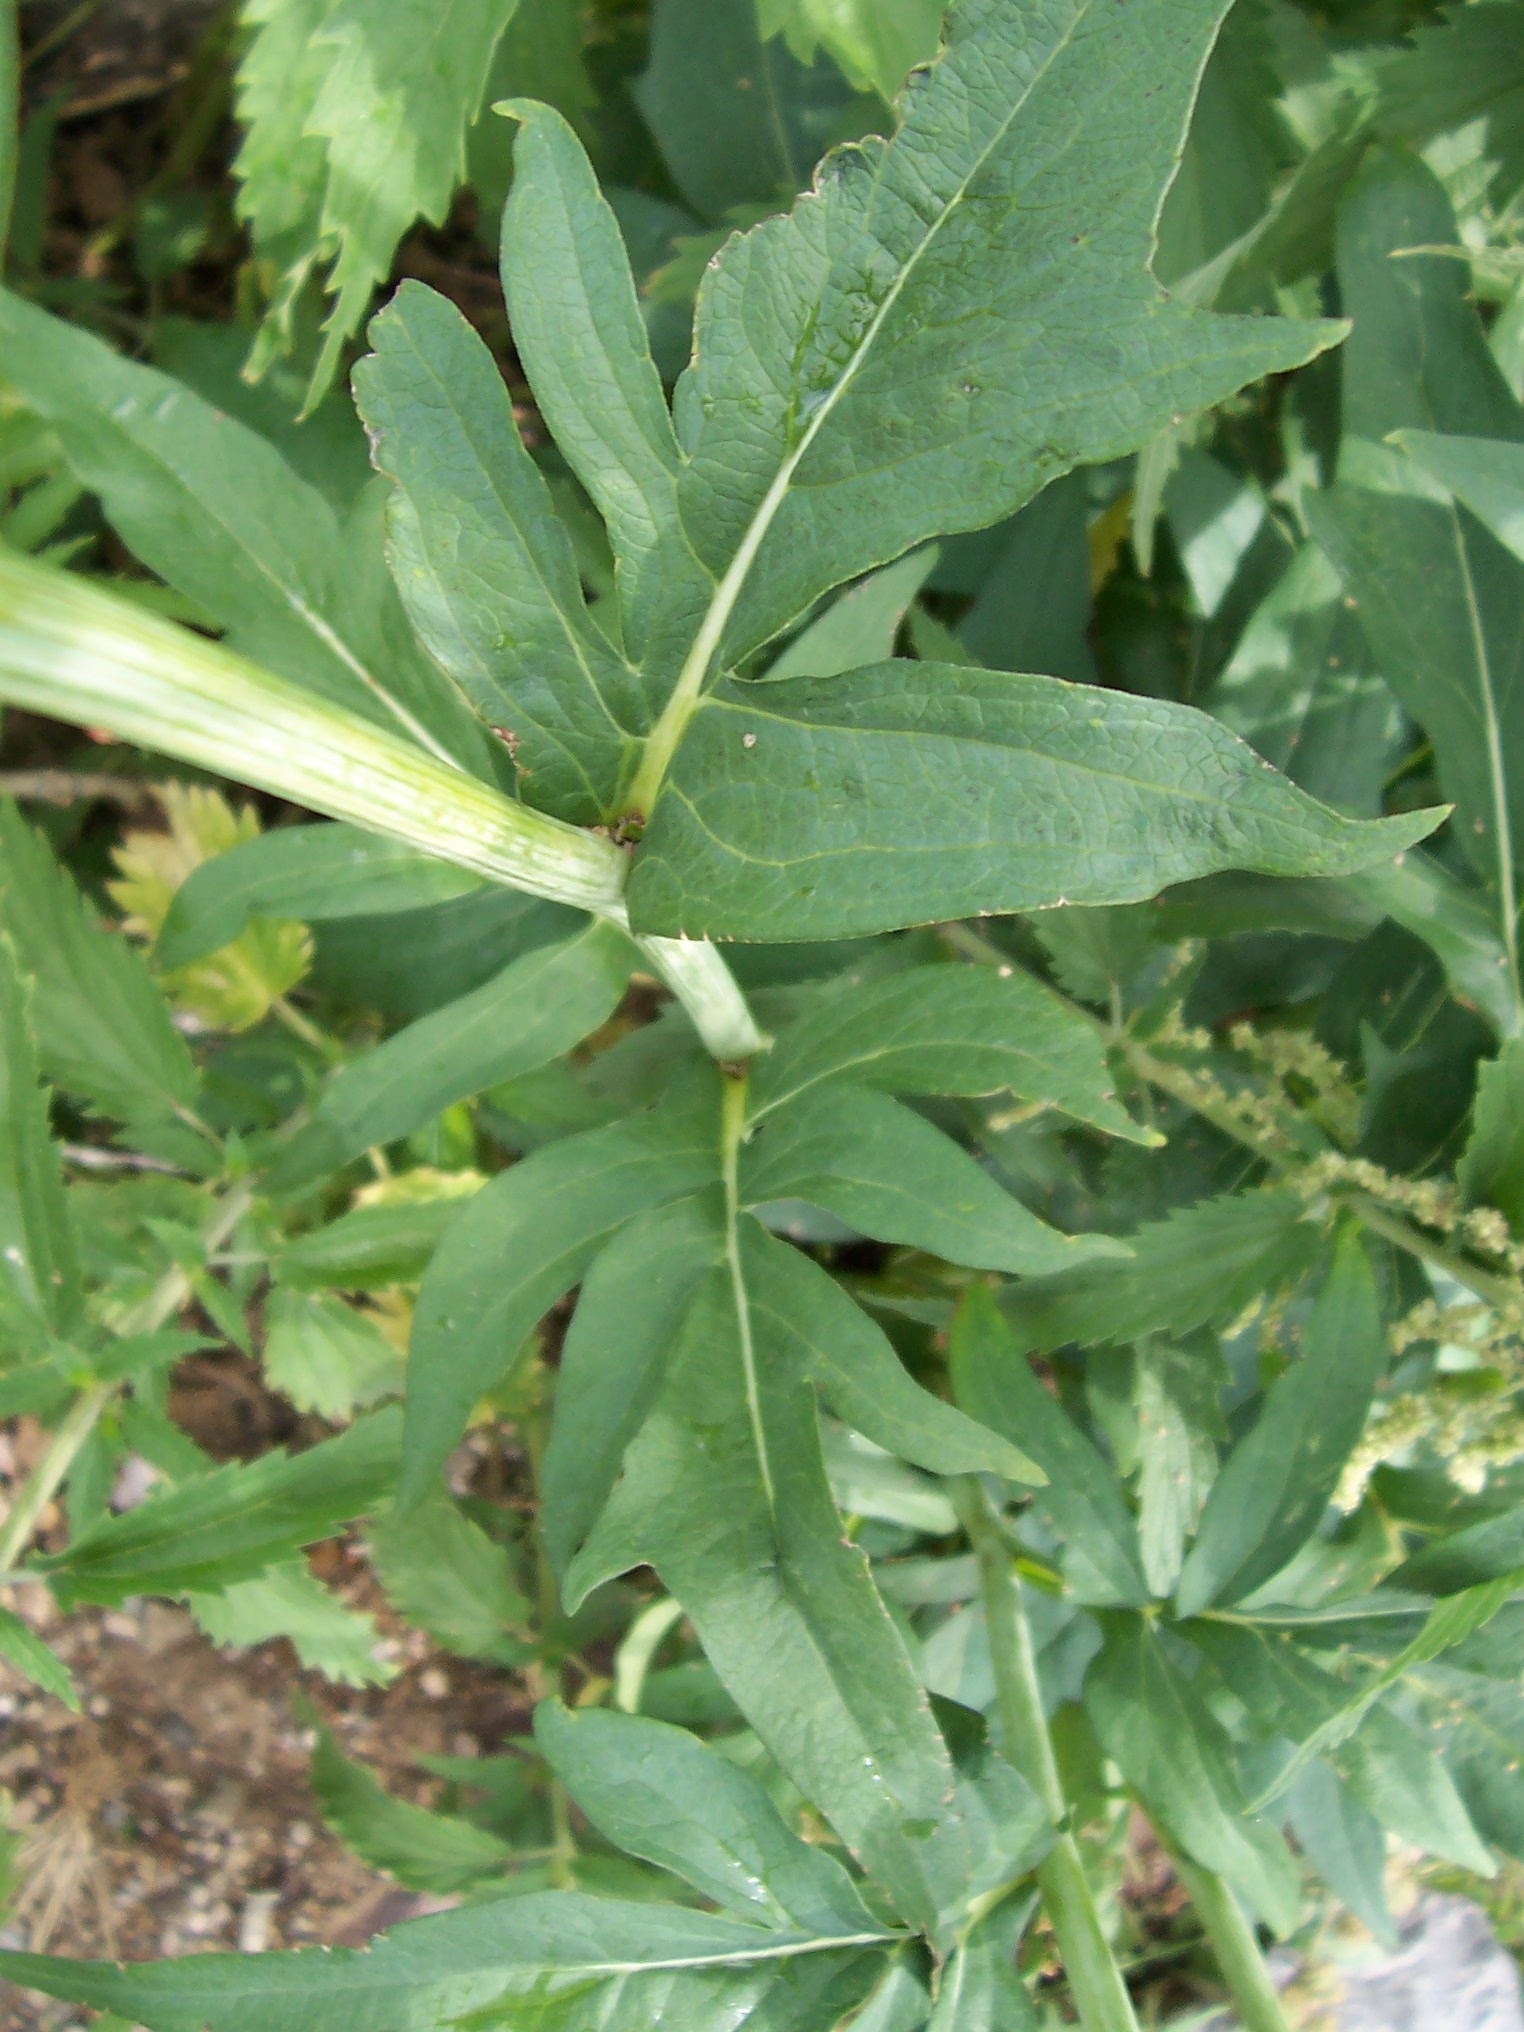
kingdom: Plantae
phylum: Tracheophyta
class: Magnoliopsida
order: Asterales
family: Asteraceae
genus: Rudbeckia
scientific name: Rudbeckia occidentalis
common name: Western coneflower
